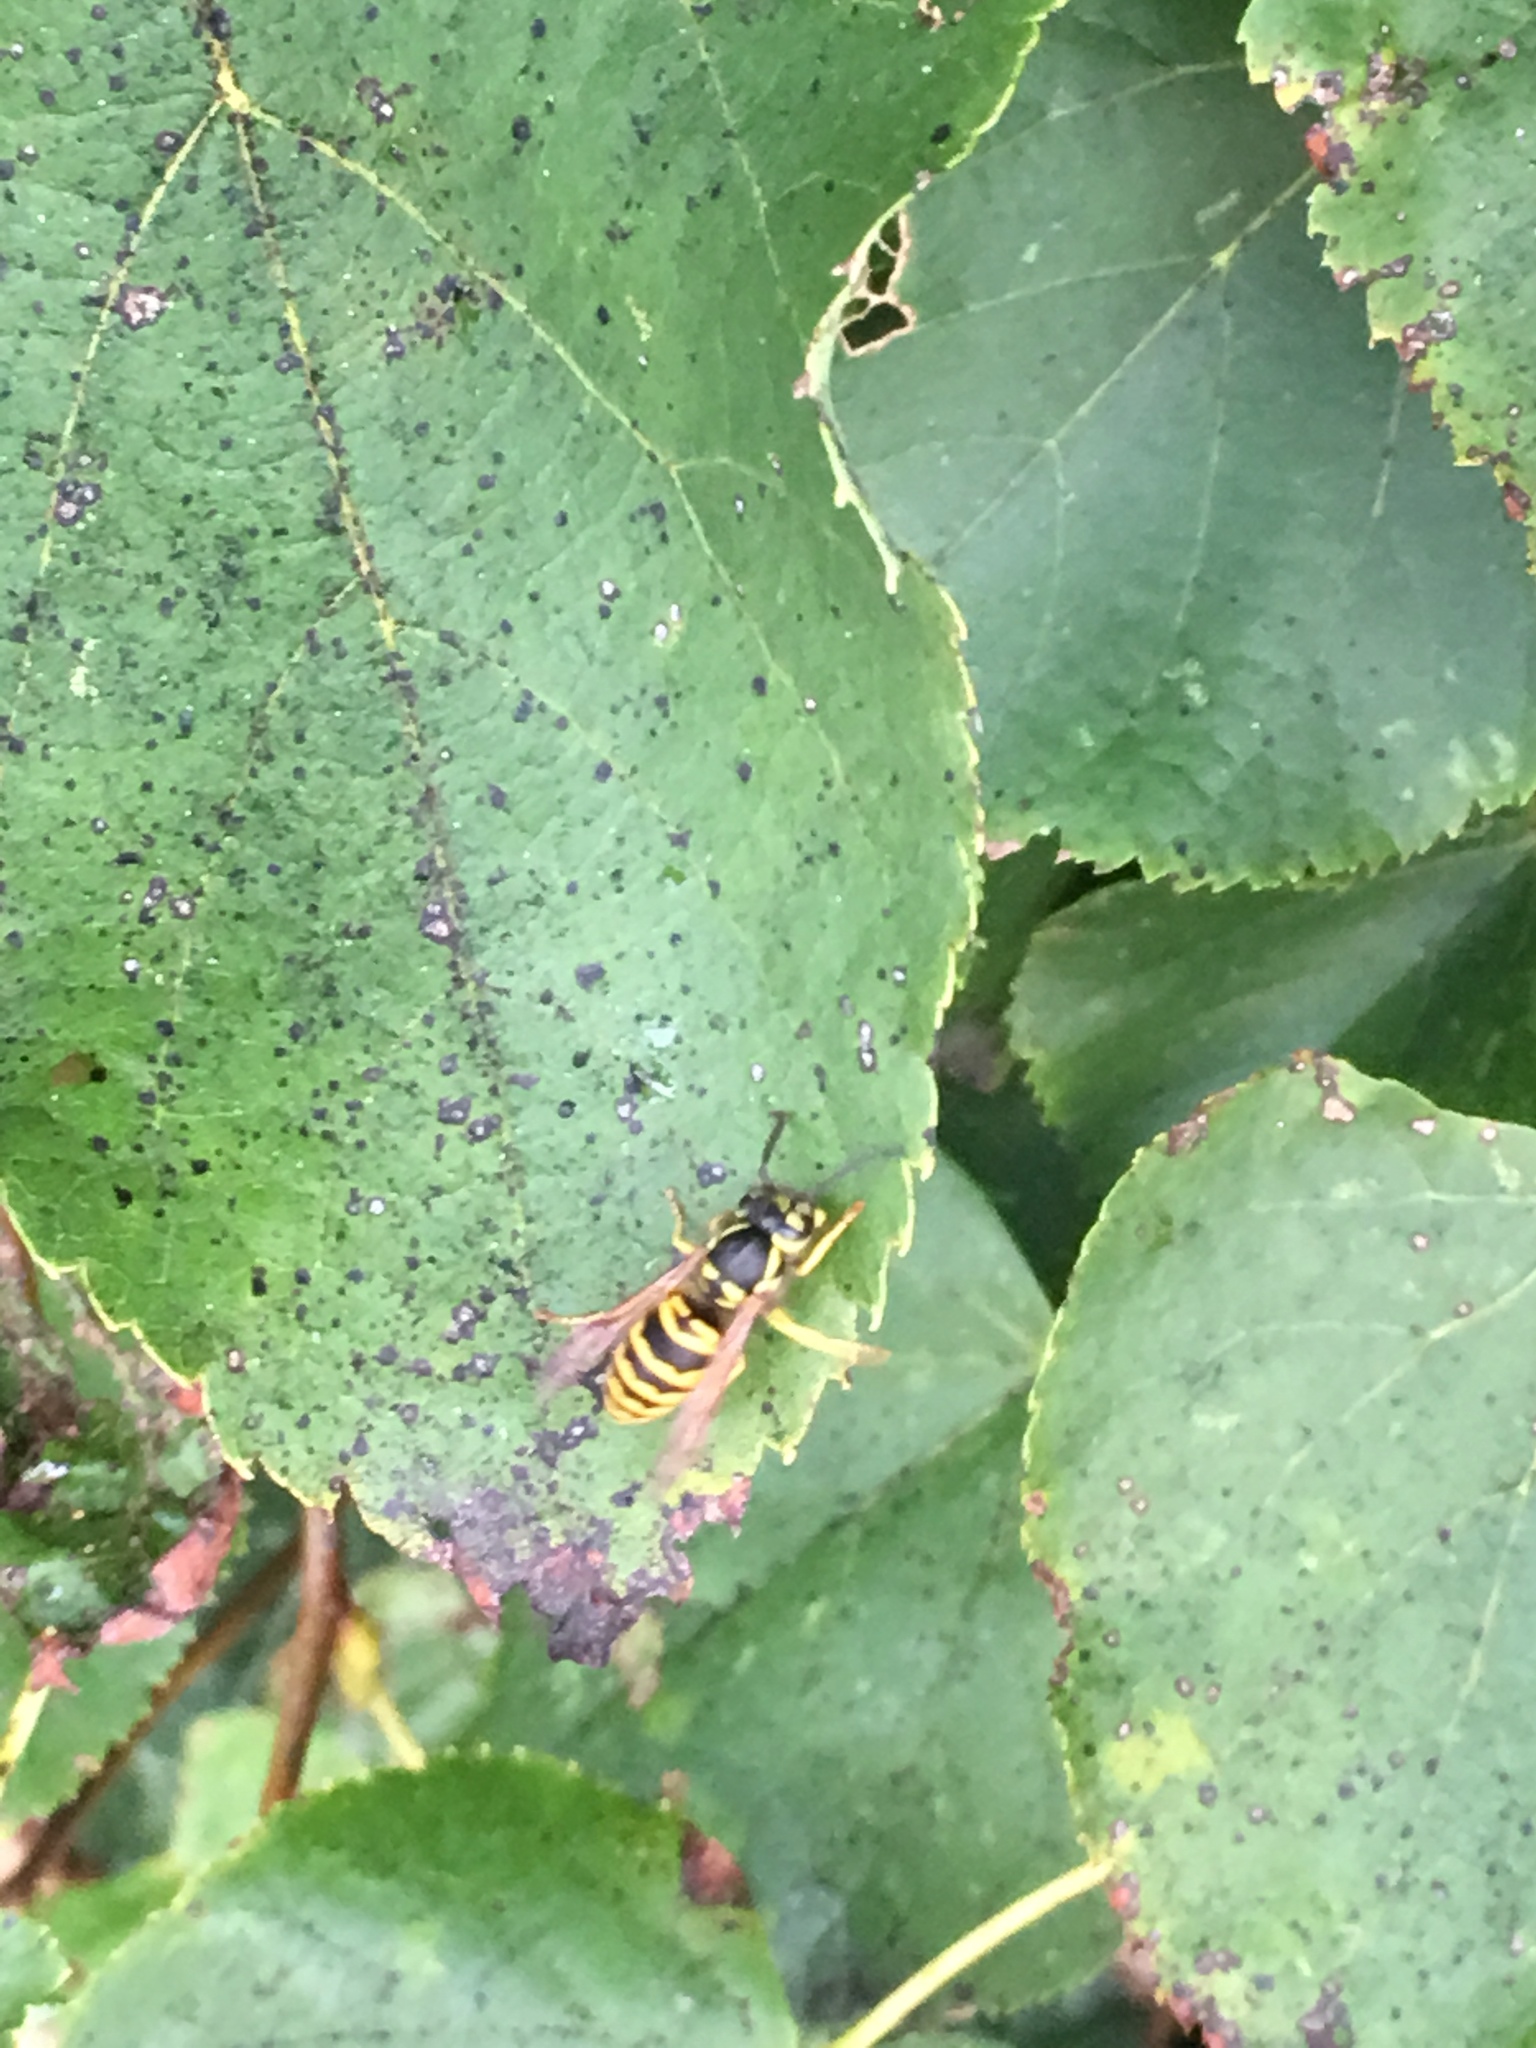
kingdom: Animalia
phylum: Arthropoda
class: Insecta
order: Hymenoptera
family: Vespidae
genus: Vespula
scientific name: Vespula maculifrons
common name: Eastern yellowjacket
